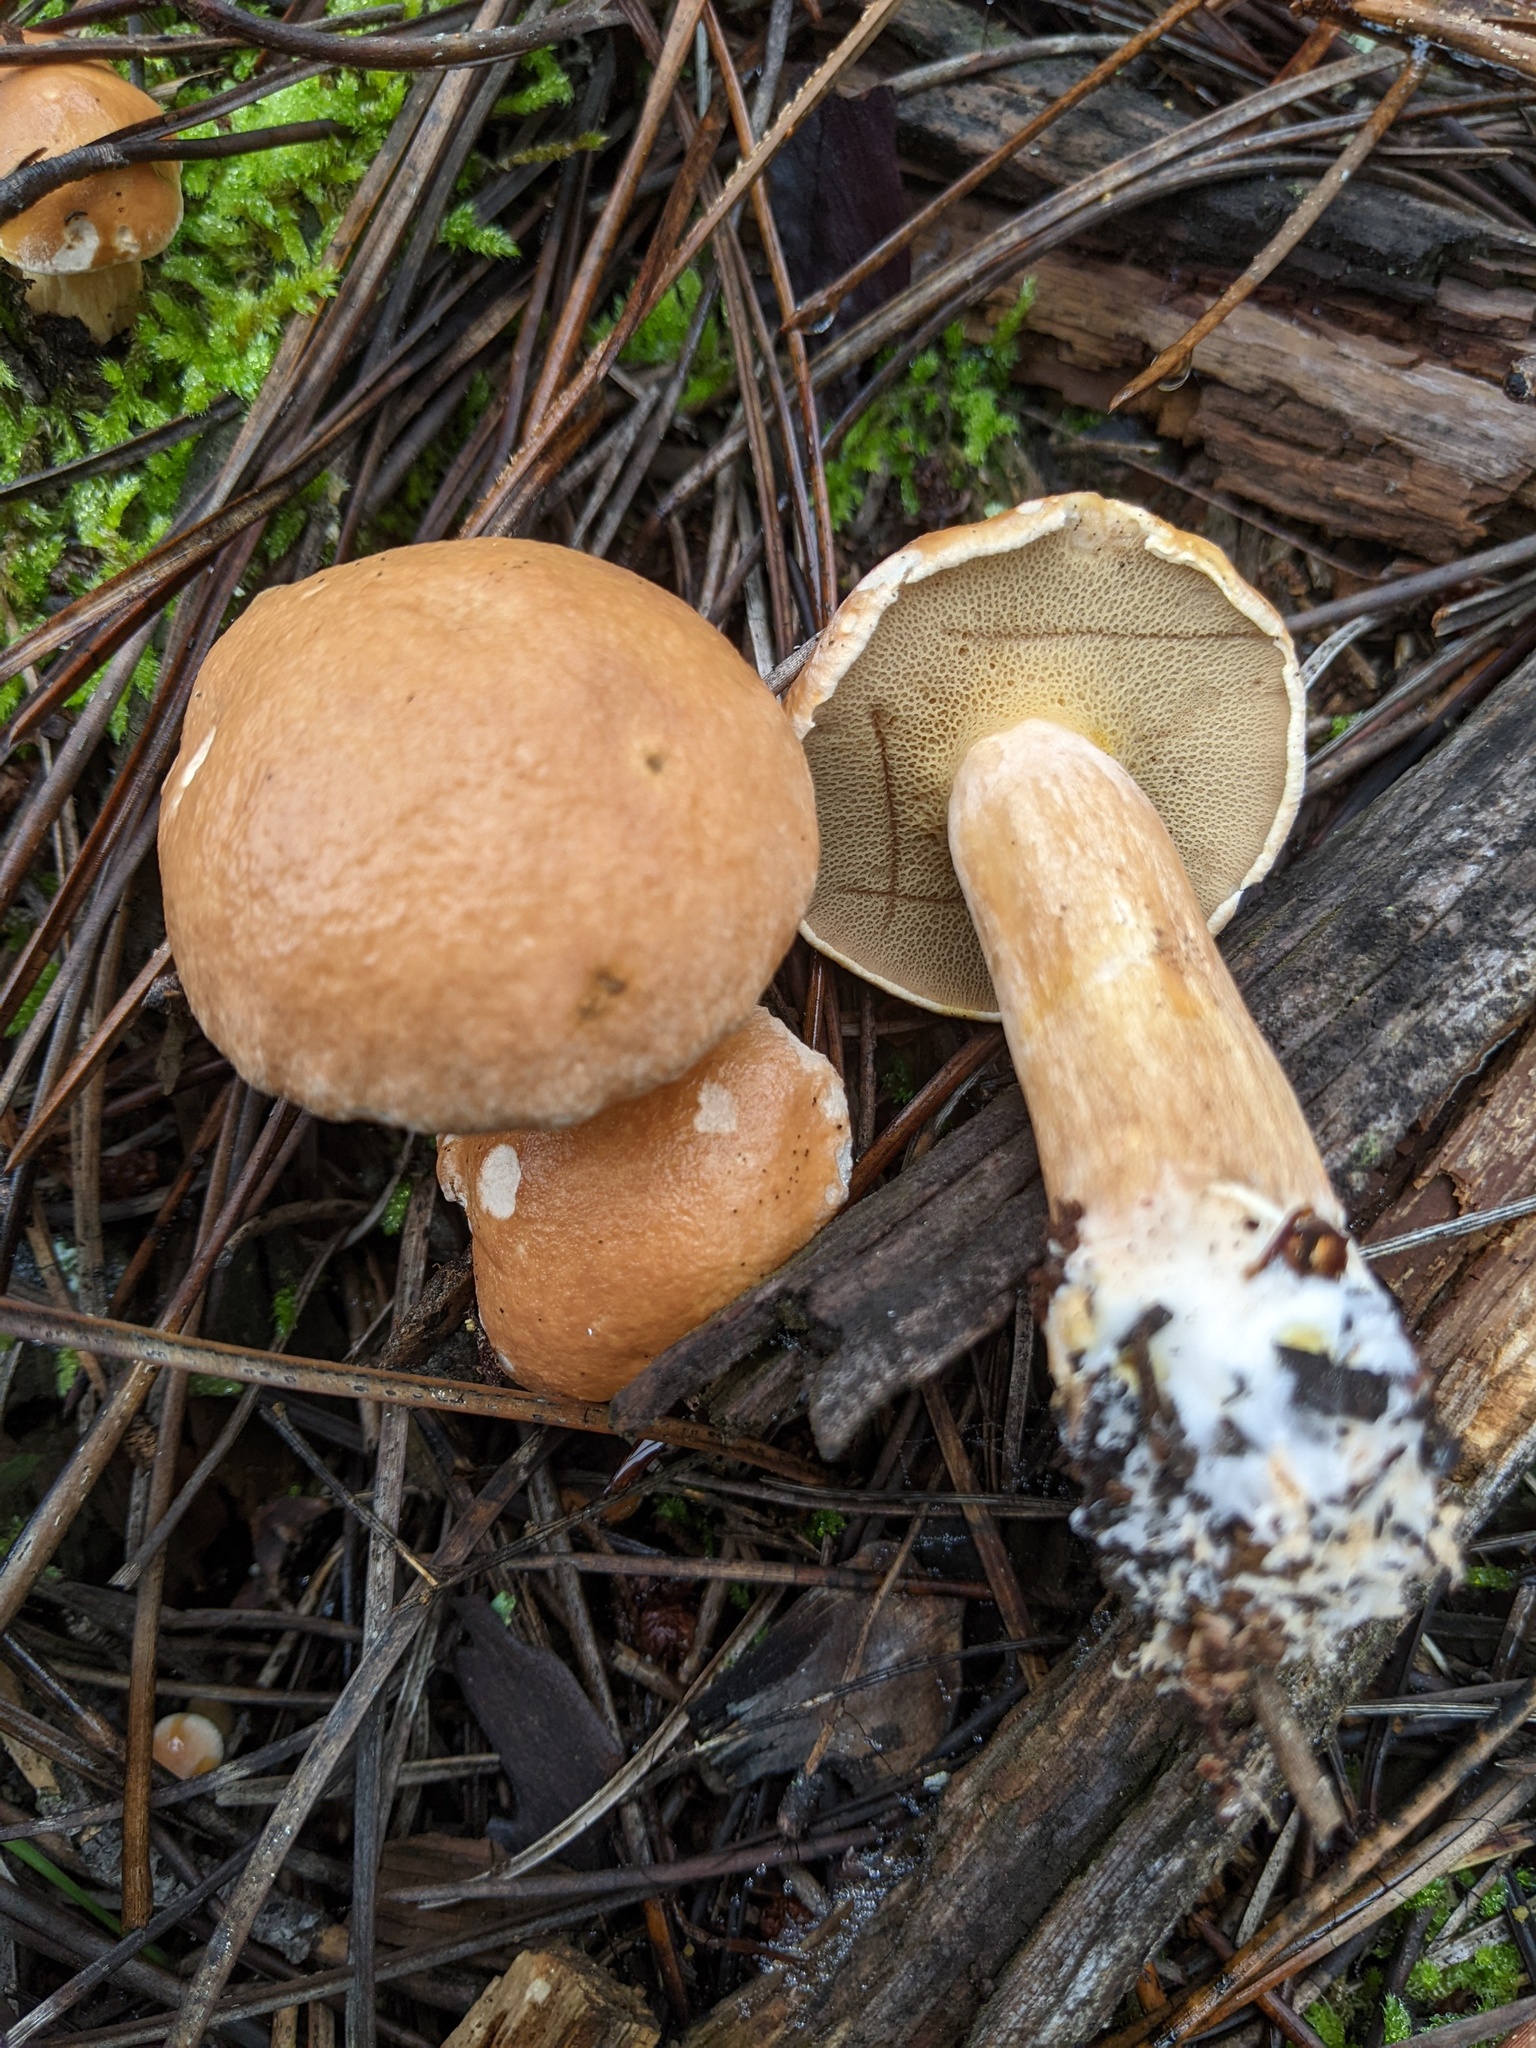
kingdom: Fungi
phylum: Basidiomycota
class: Agaricomycetes
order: Boletales
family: Suillaceae
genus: Suillus
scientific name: Suillus bovinus
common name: Bovine bolete
